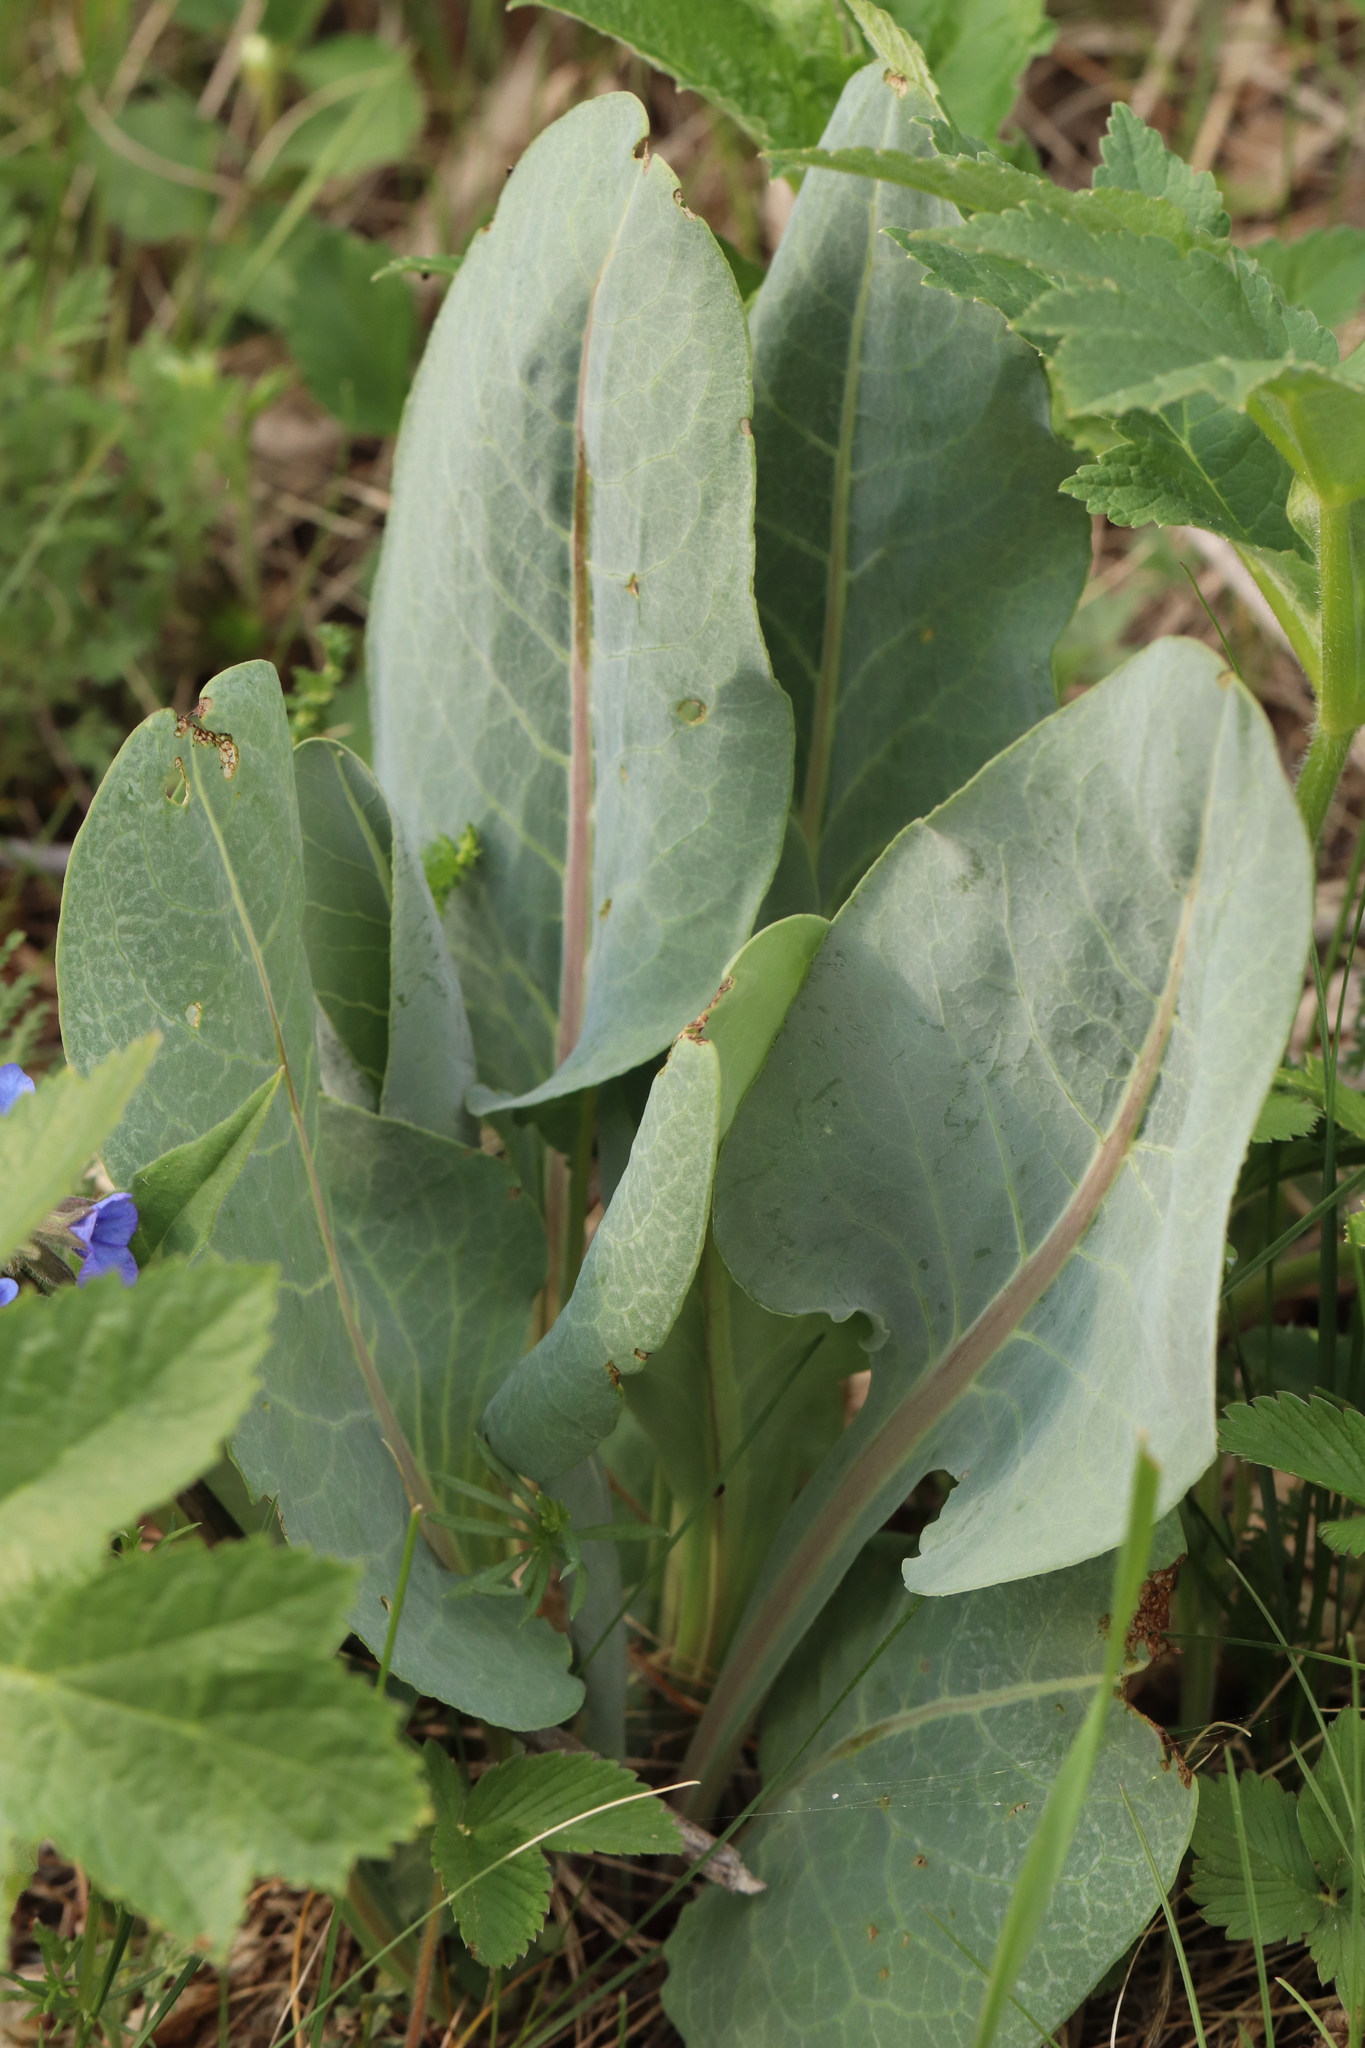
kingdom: Plantae
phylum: Tracheophyta
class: Magnoliopsida
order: Asterales
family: Asteraceae
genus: Ligularia
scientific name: Ligularia glauca
